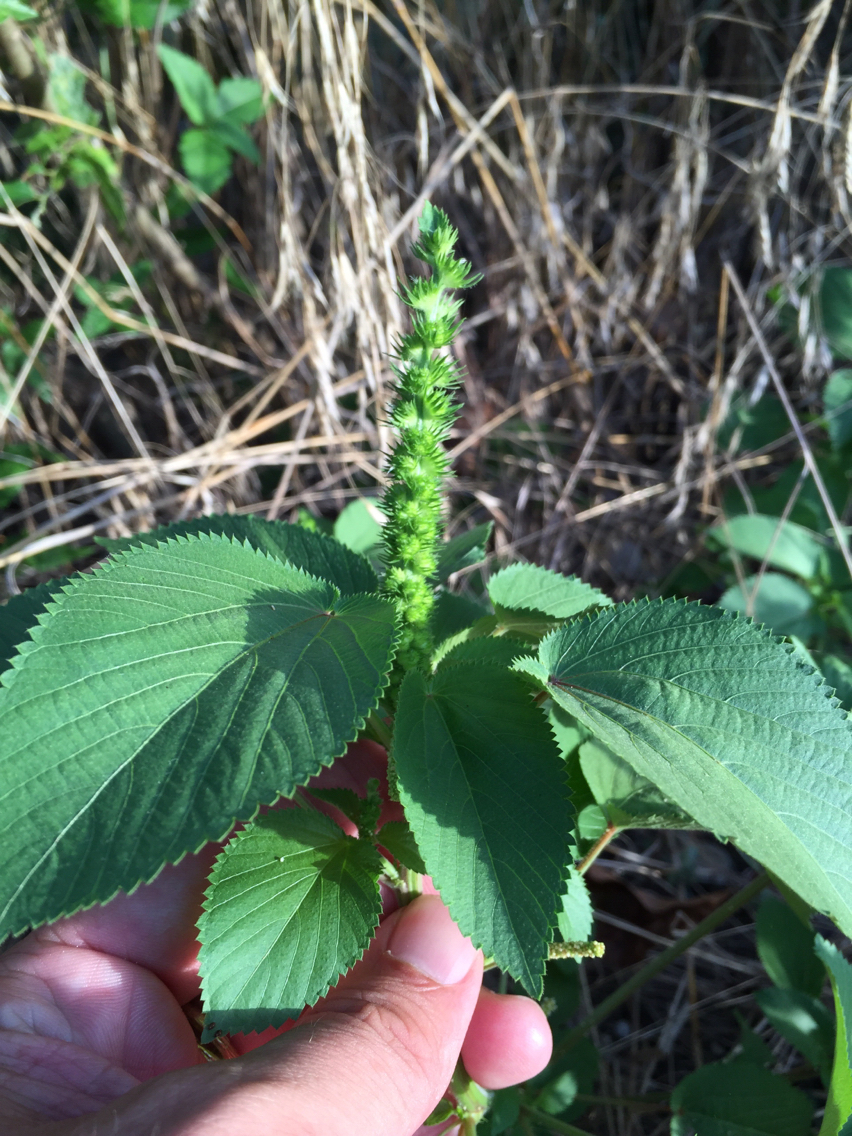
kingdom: Plantae
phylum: Tracheophyta
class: Magnoliopsida
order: Malpighiales
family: Euphorbiaceae
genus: Acalypha
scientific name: Acalypha ostryifolia
